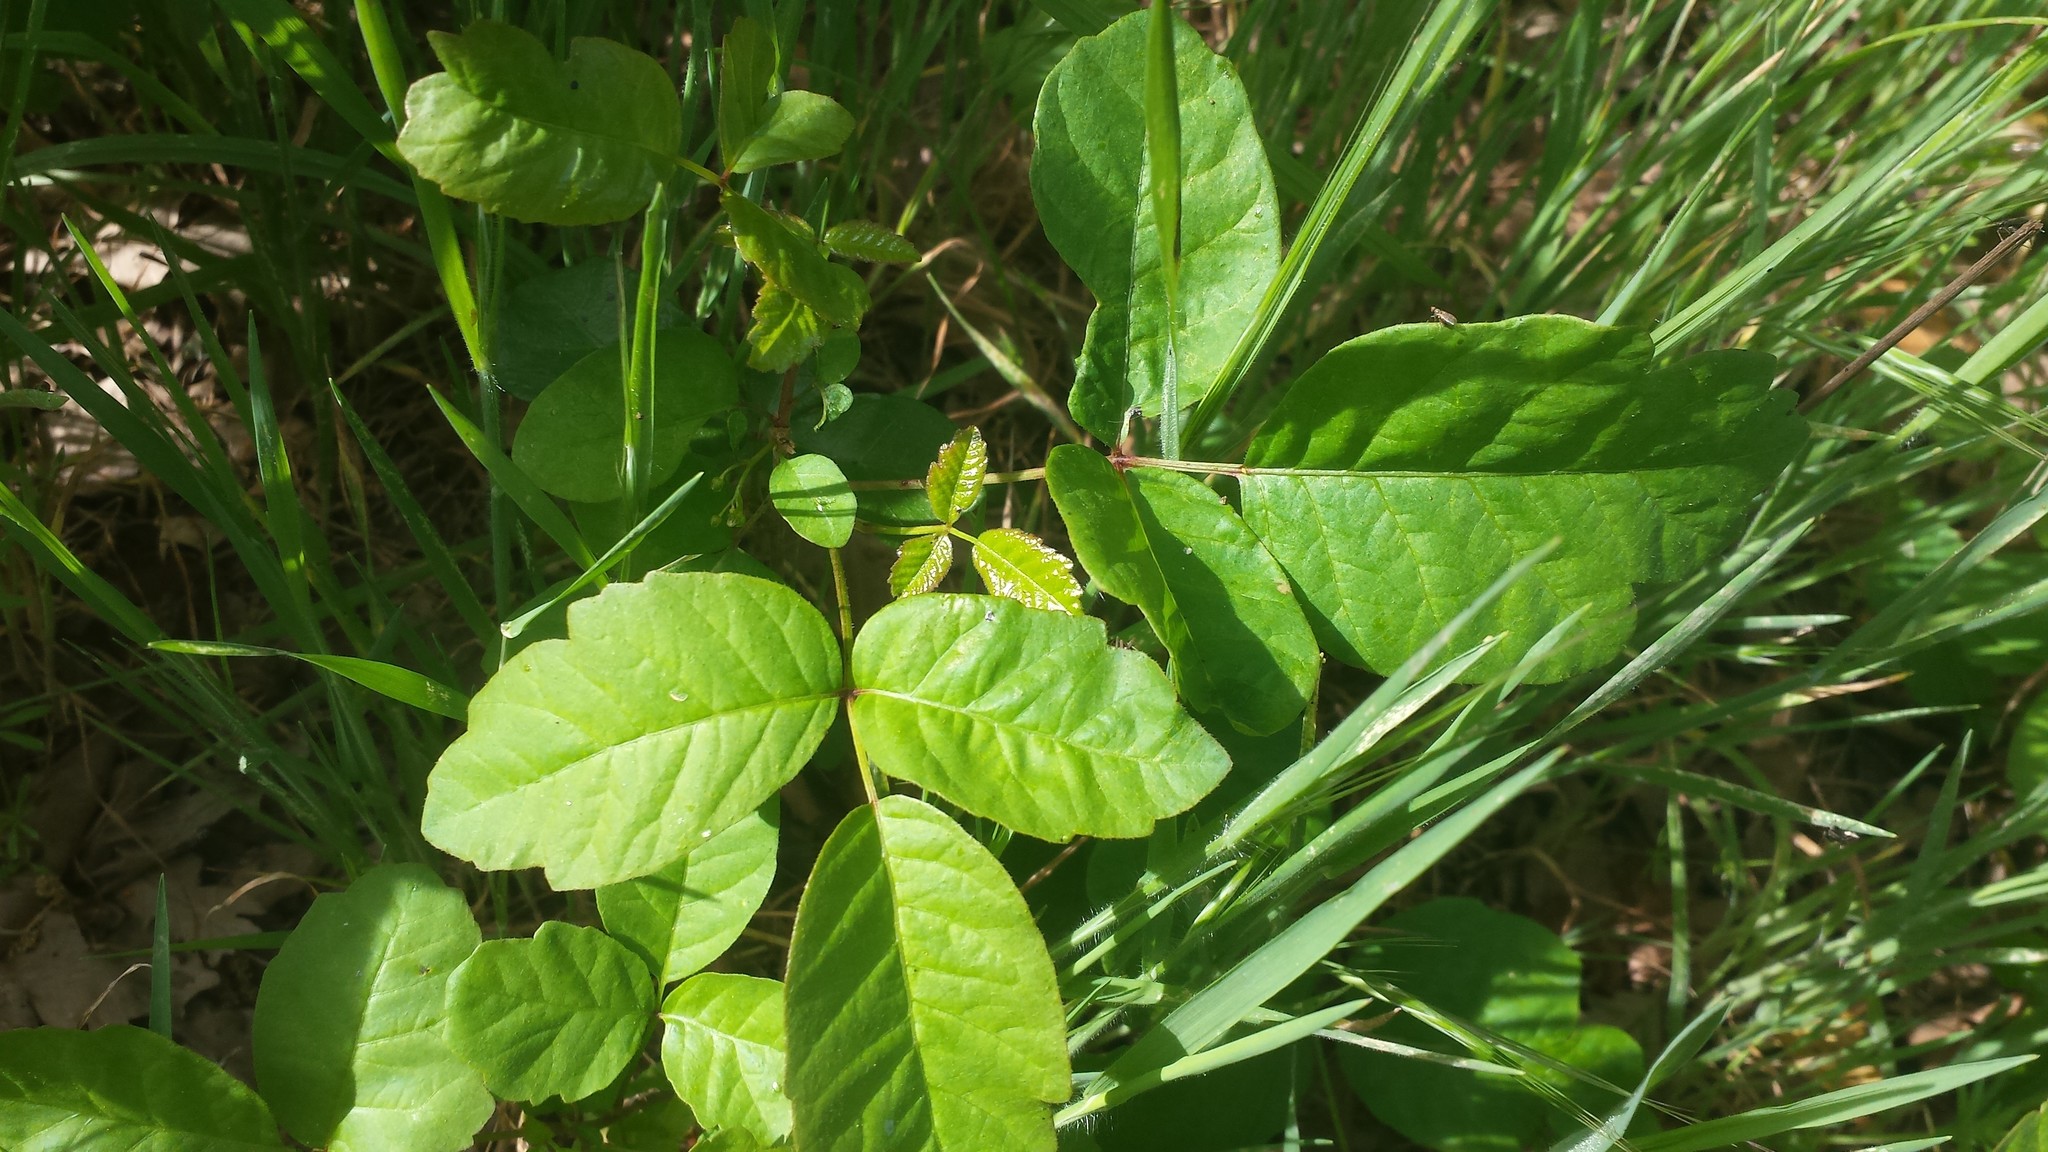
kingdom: Plantae
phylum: Tracheophyta
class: Magnoliopsida
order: Sapindales
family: Anacardiaceae
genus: Toxicodendron
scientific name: Toxicodendron diversilobum
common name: Pacific poison-oak
